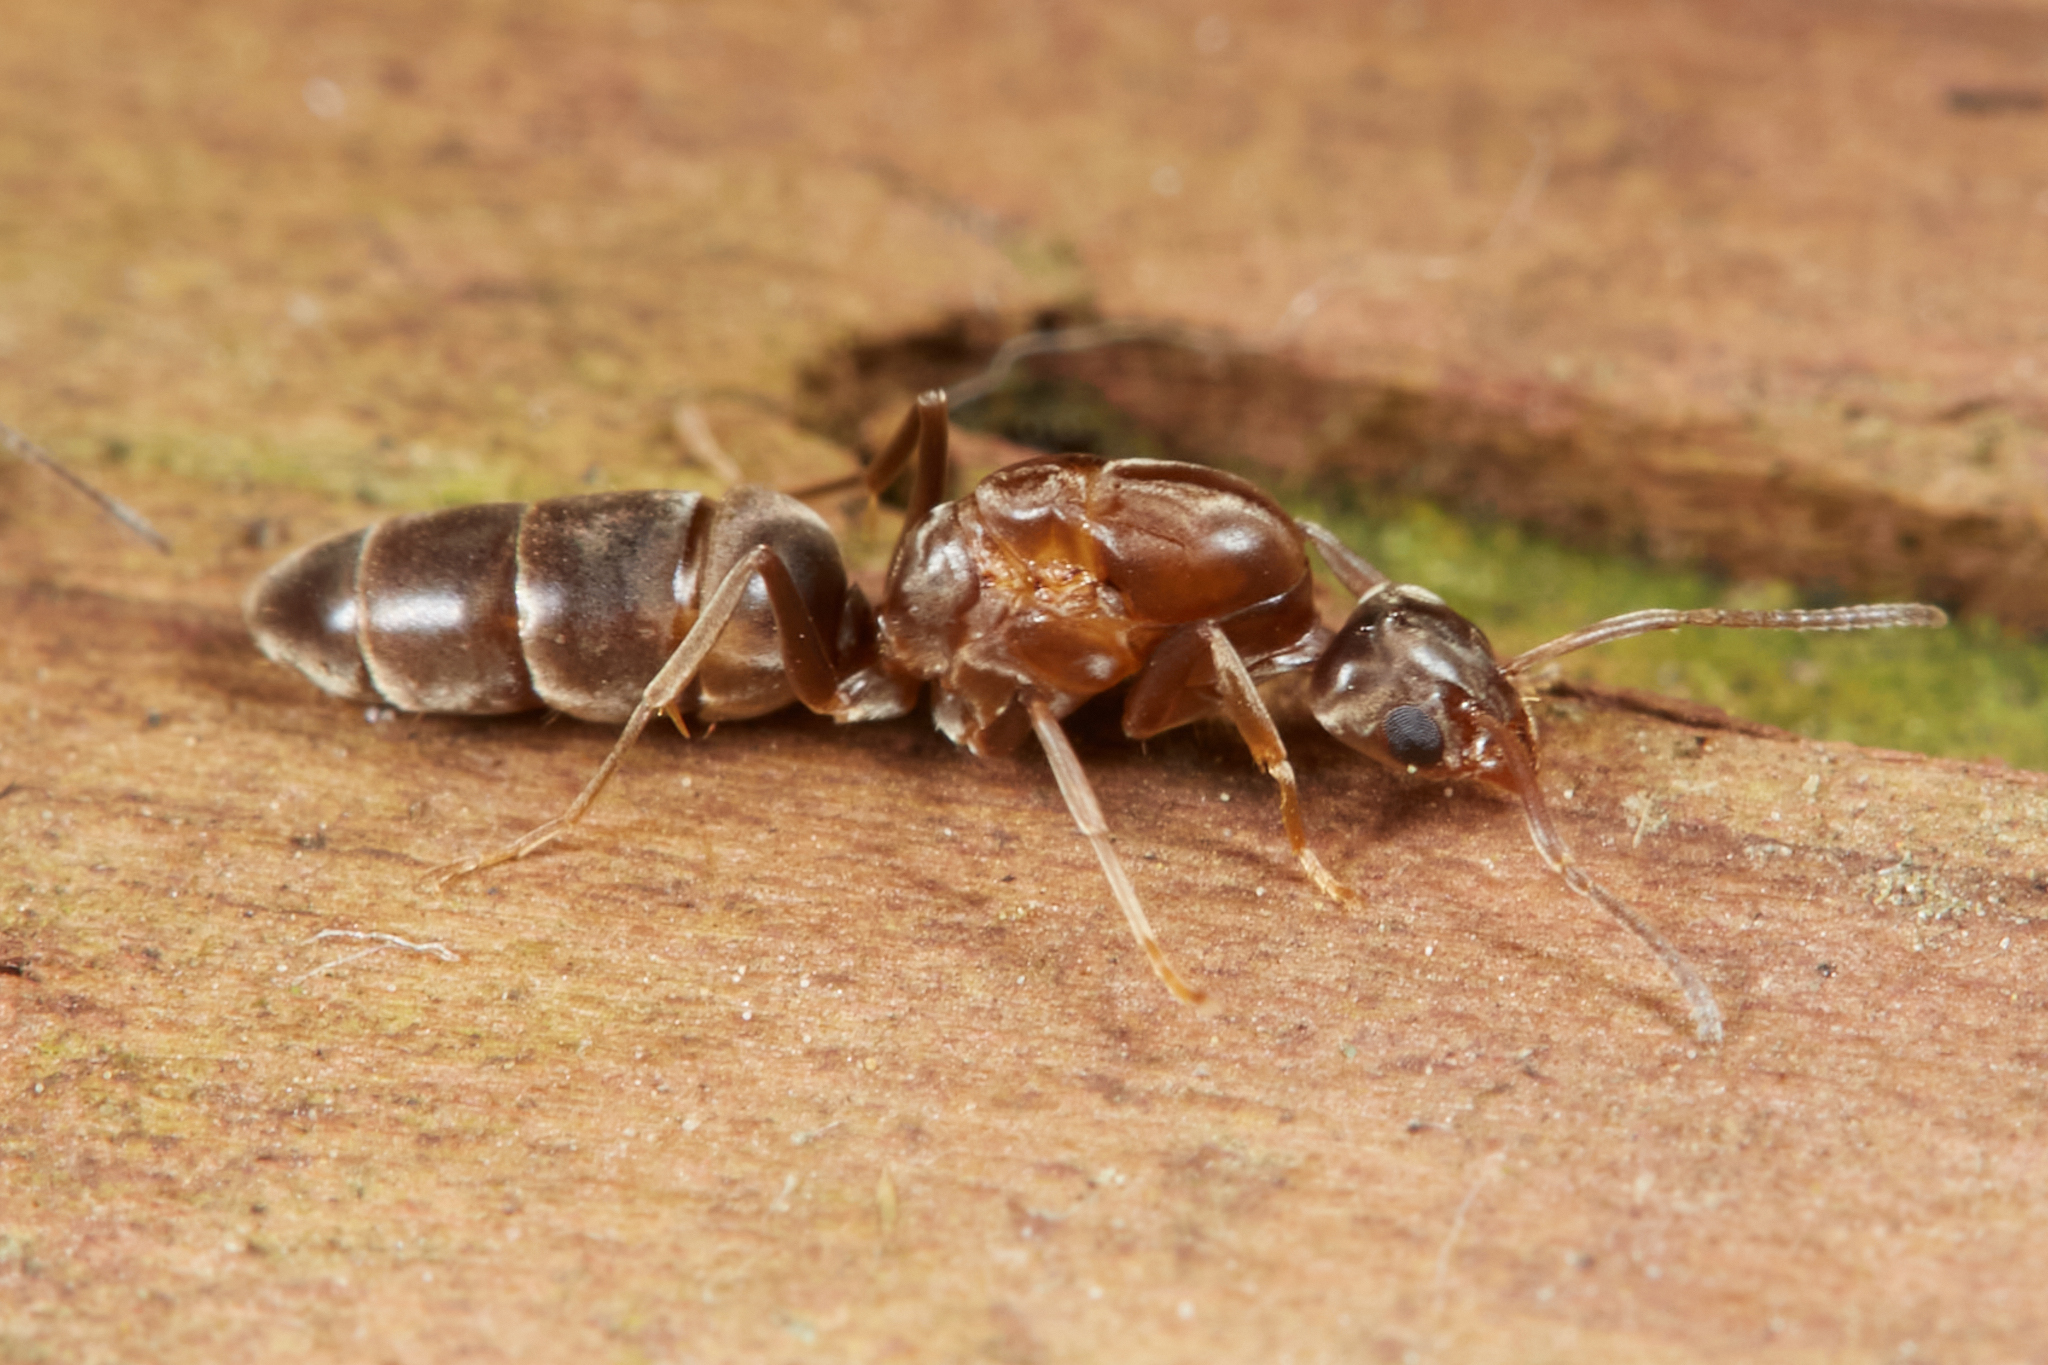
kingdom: Animalia
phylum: Arthropoda
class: Insecta
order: Hymenoptera
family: Formicidae
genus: Linepithema
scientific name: Linepithema humile
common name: Argentine ant
